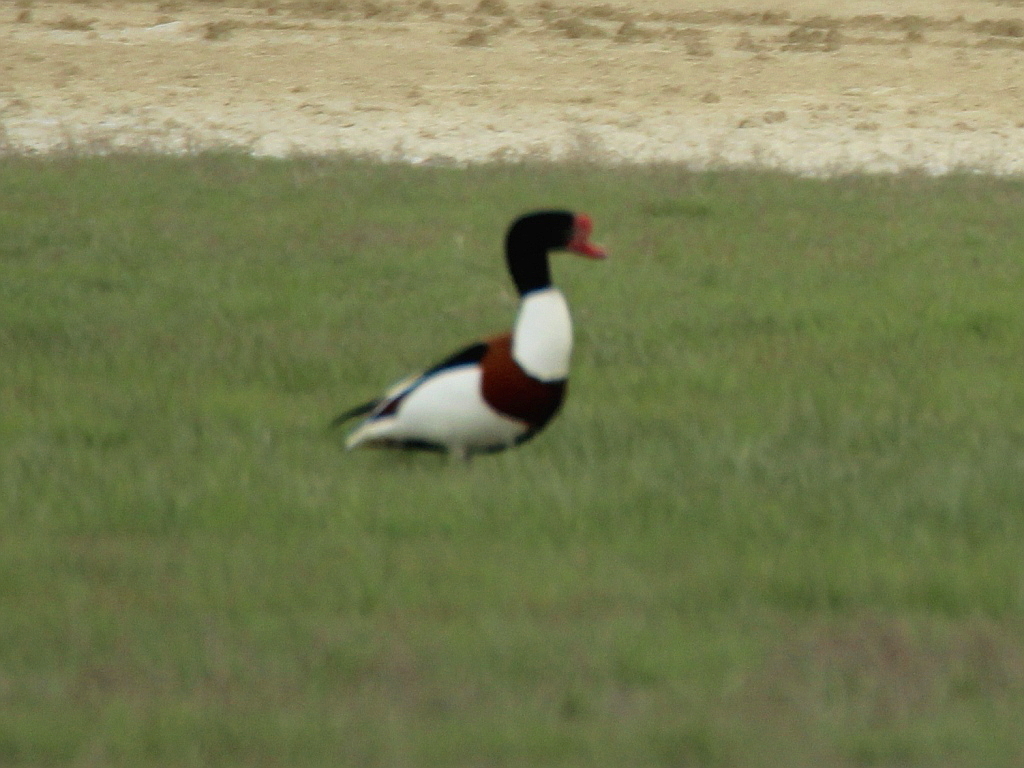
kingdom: Animalia
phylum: Chordata
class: Aves
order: Anseriformes
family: Anatidae
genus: Tadorna
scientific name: Tadorna tadorna
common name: Common shelduck
